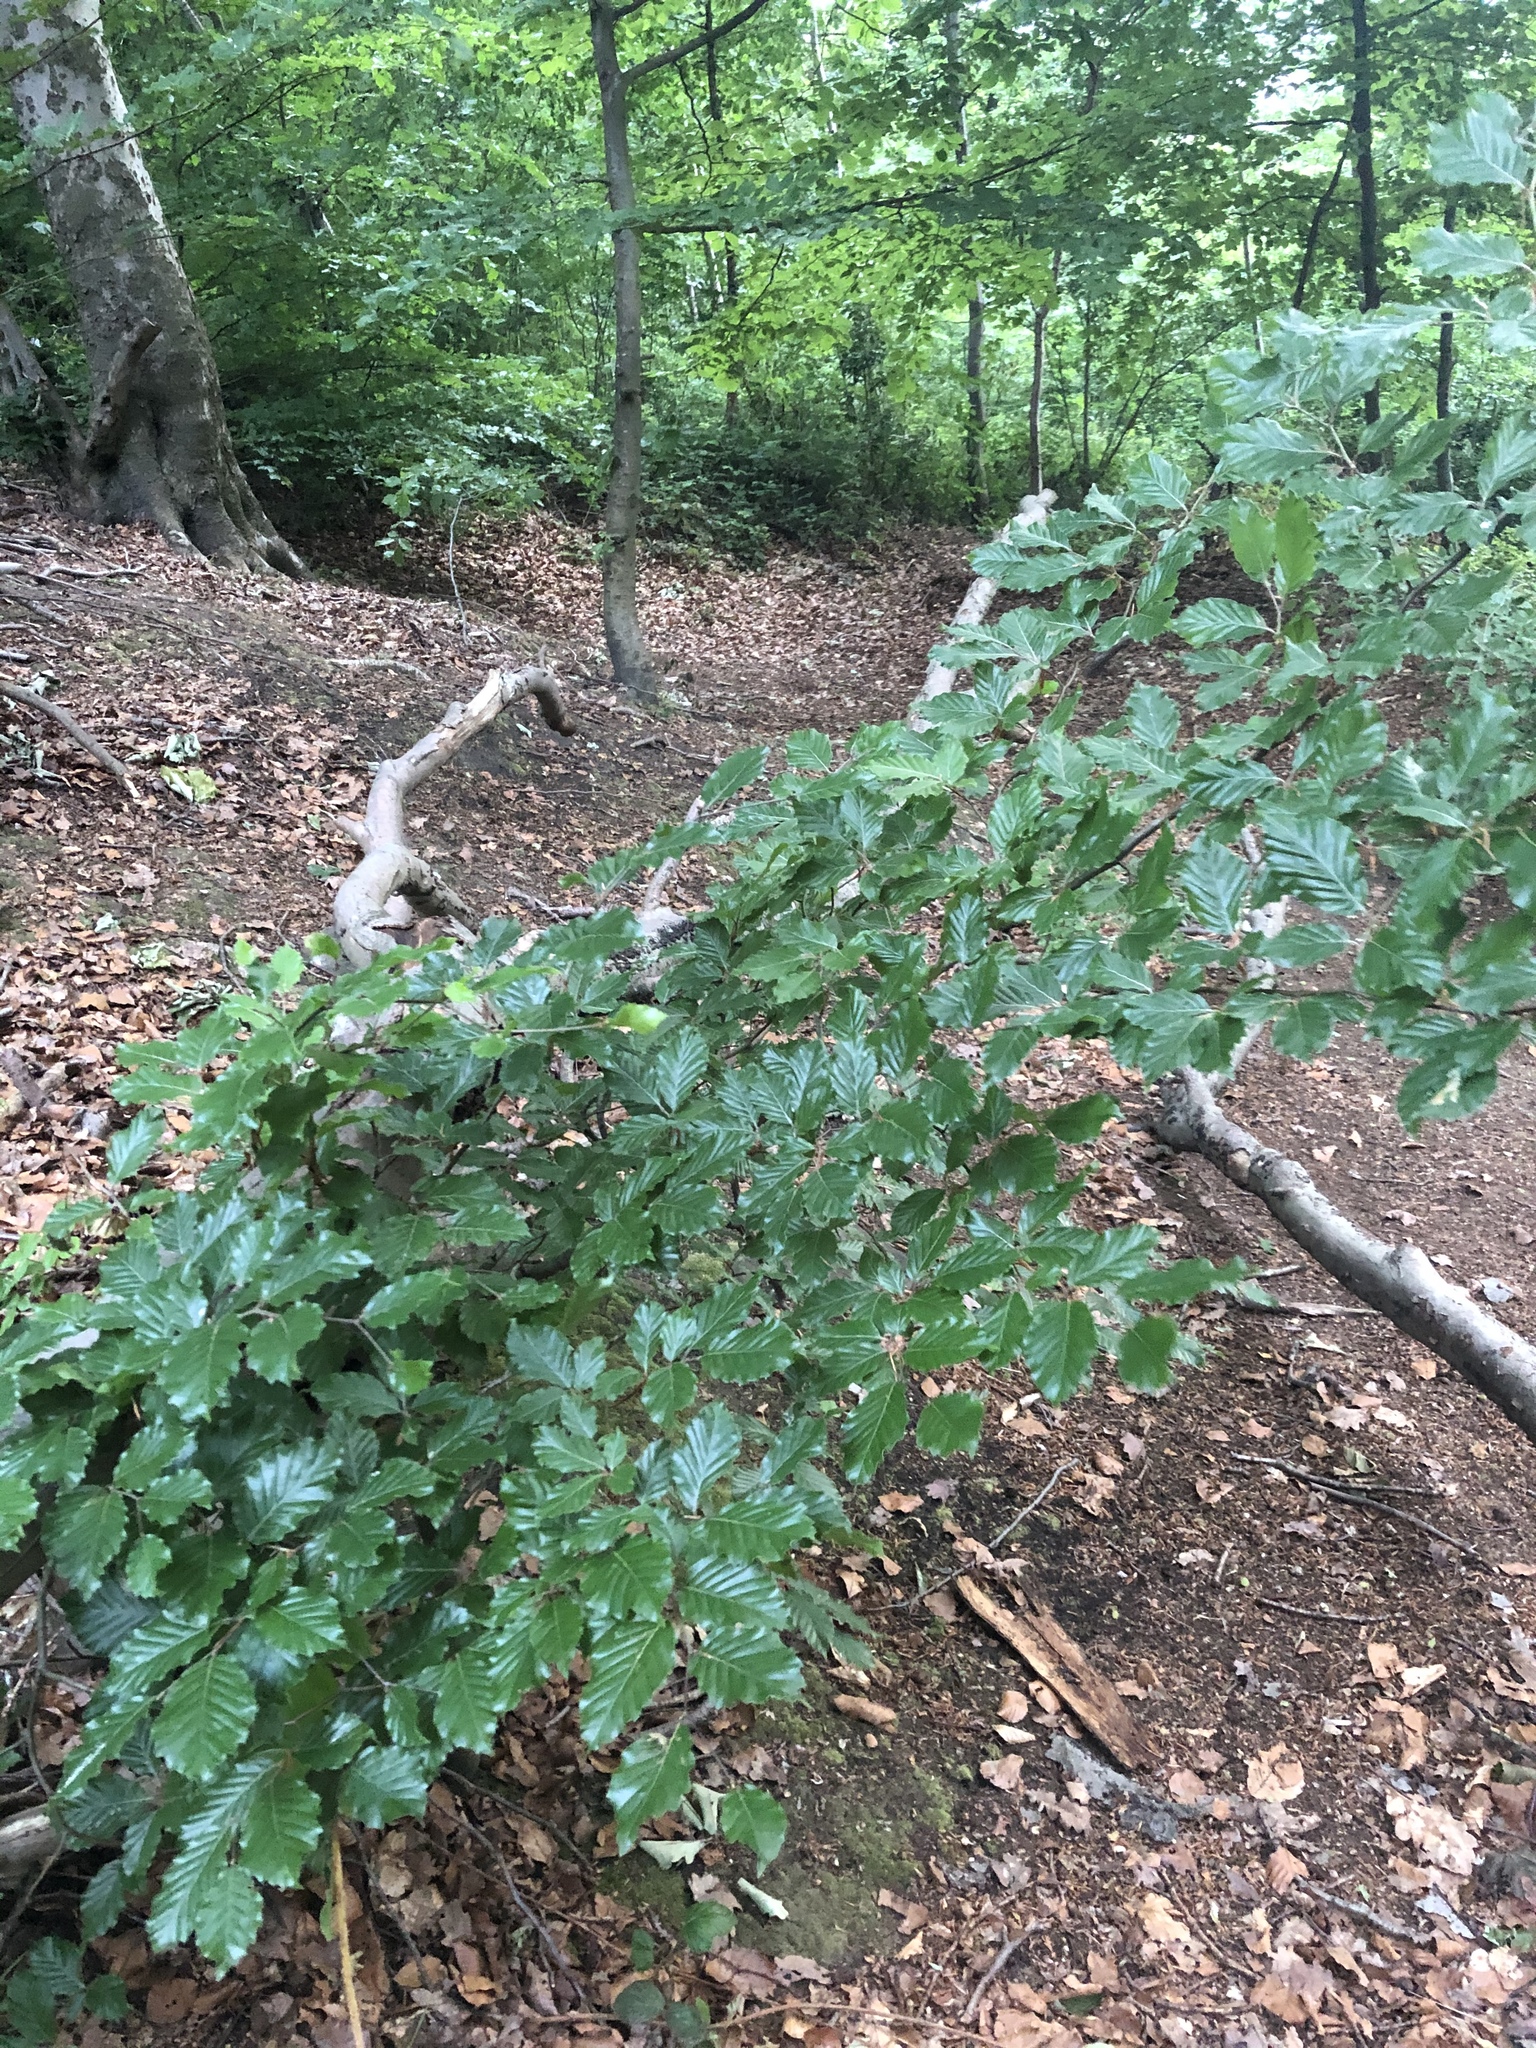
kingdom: Plantae
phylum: Tracheophyta
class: Magnoliopsida
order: Fagales
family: Fagaceae
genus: Fagus
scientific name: Fagus sylvatica
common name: Beech
